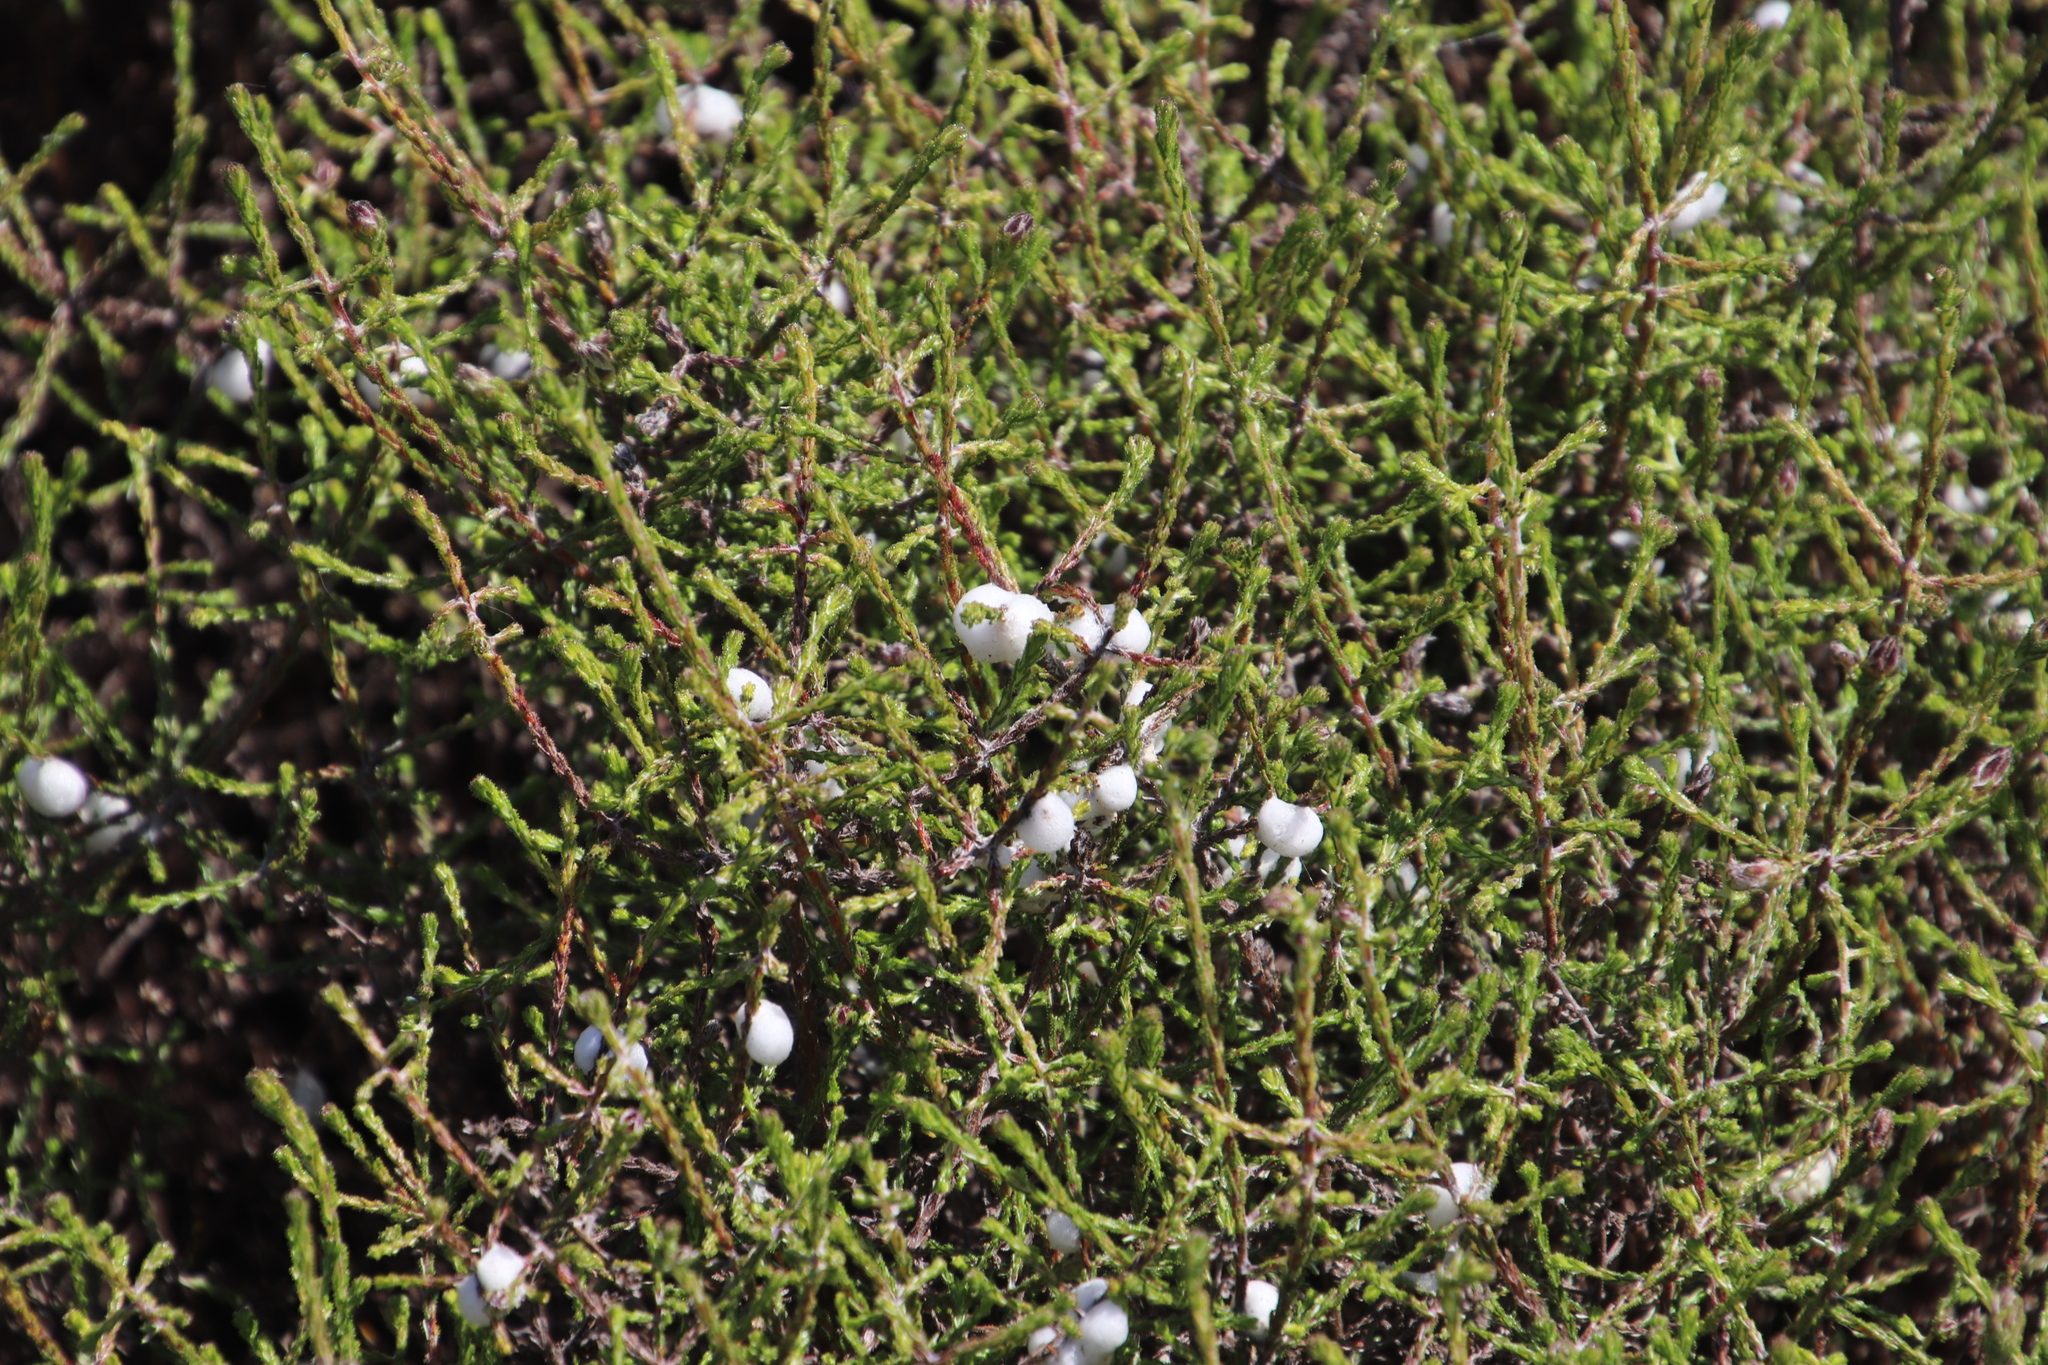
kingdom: Plantae
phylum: Tracheophyta
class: Magnoliopsida
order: Asterales
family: Asteraceae
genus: Myrovernix
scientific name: Myrovernix scaber
